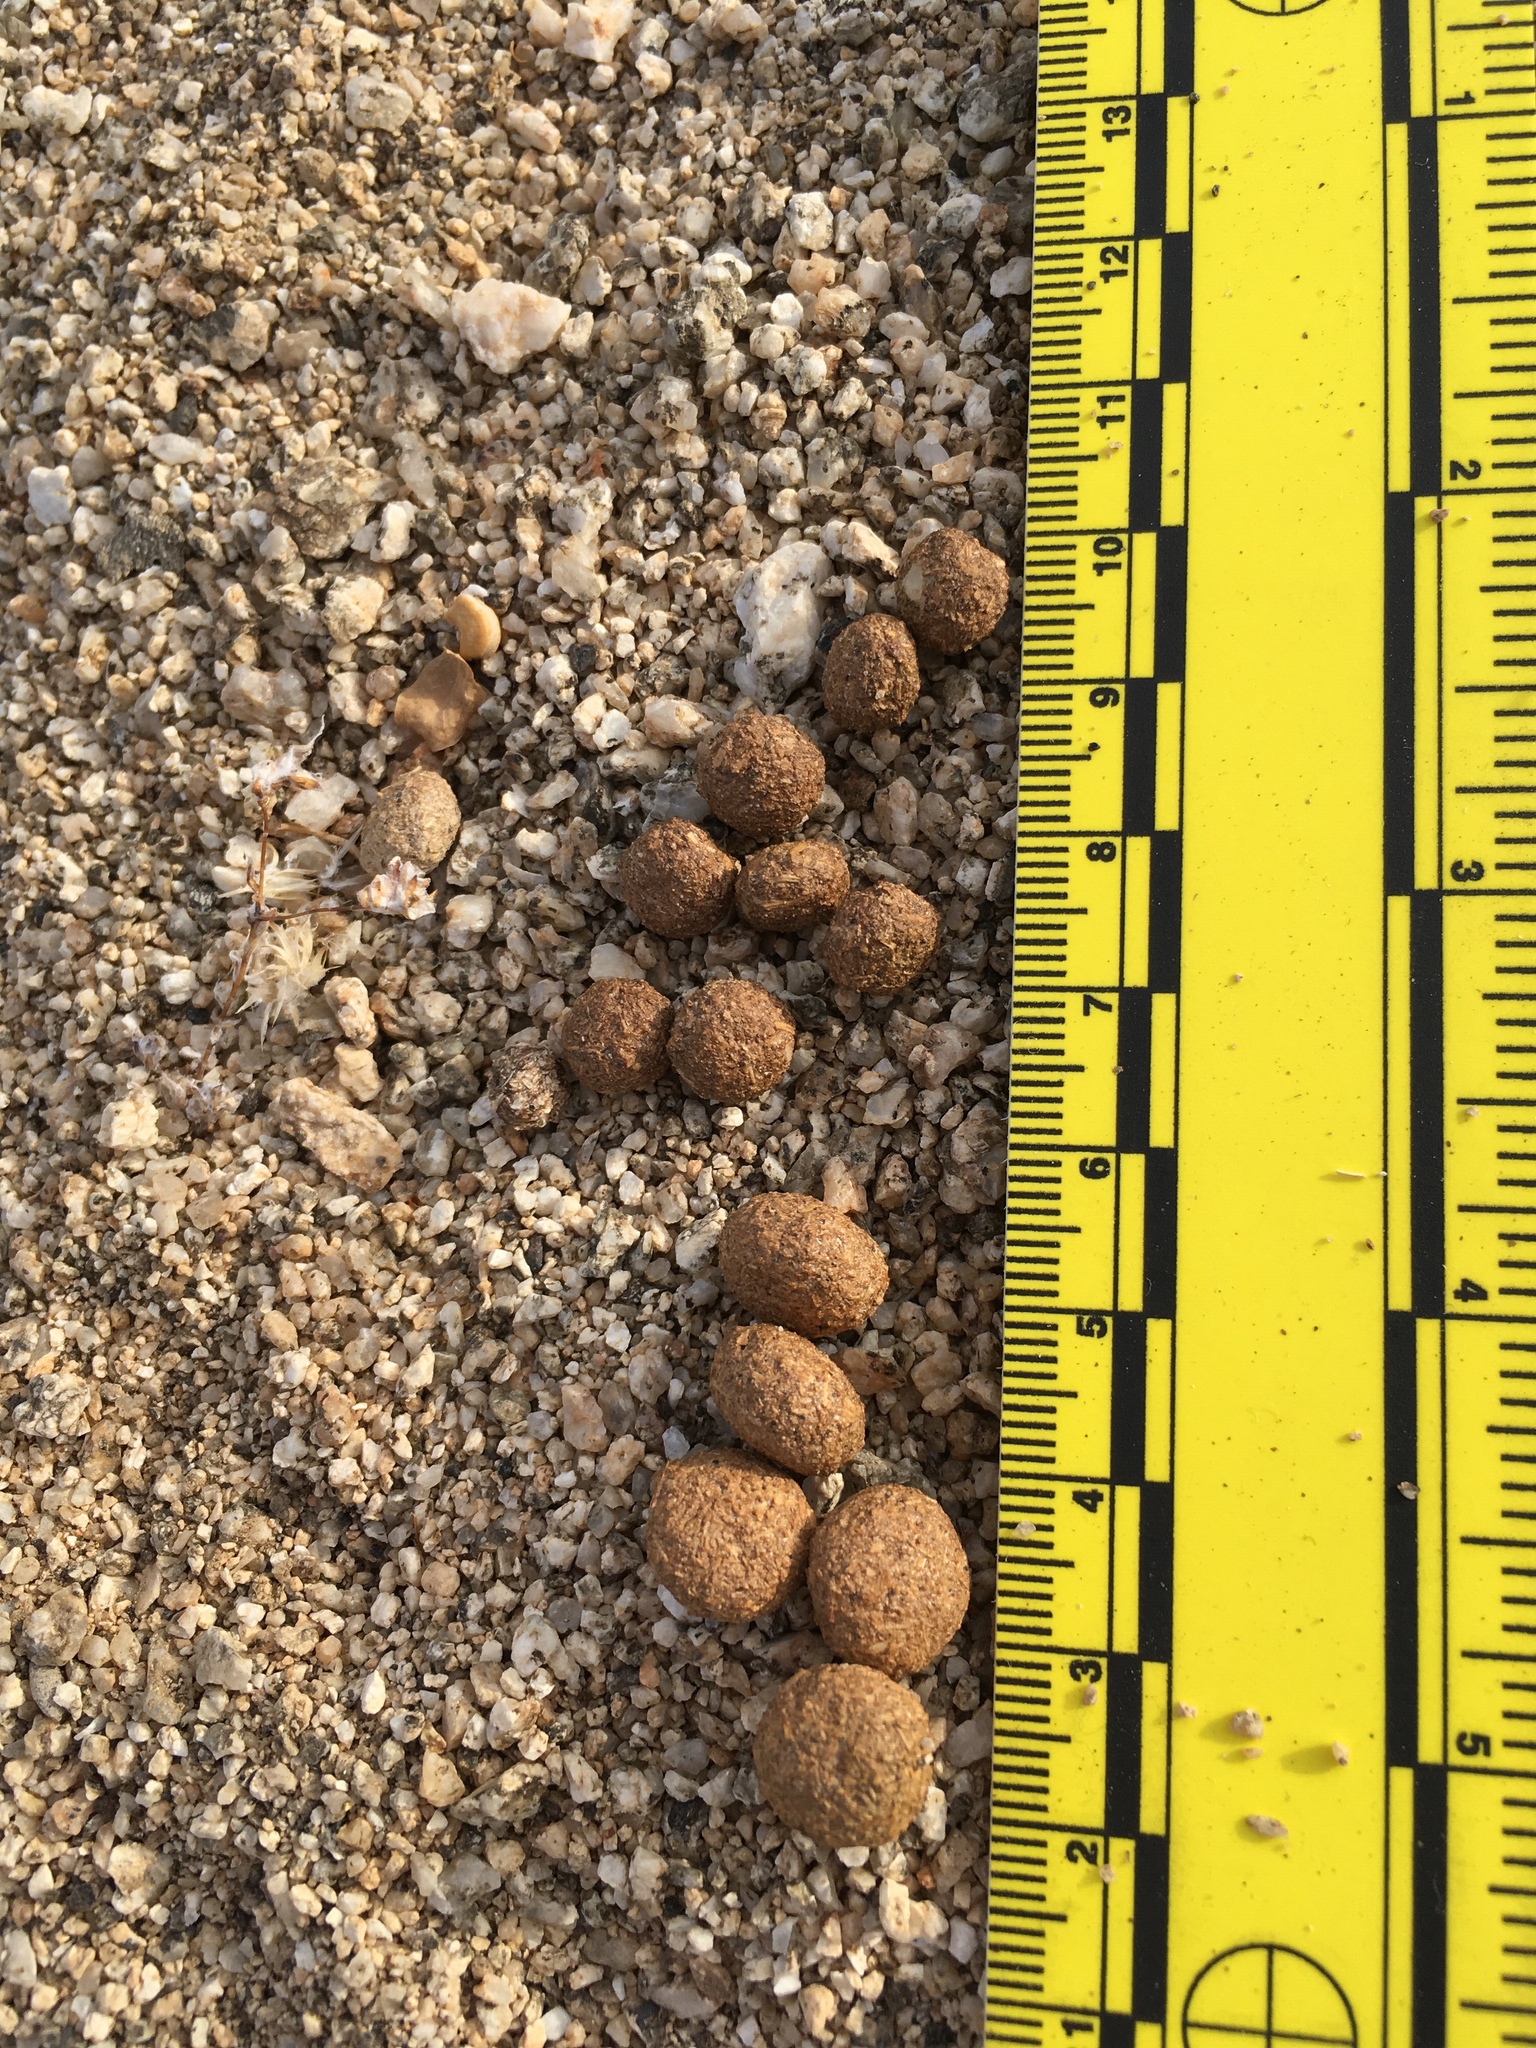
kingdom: Animalia
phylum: Chordata
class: Mammalia
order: Lagomorpha
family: Leporidae
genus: Lepus
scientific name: Lepus californicus
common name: Black-tailed jackrabbit
